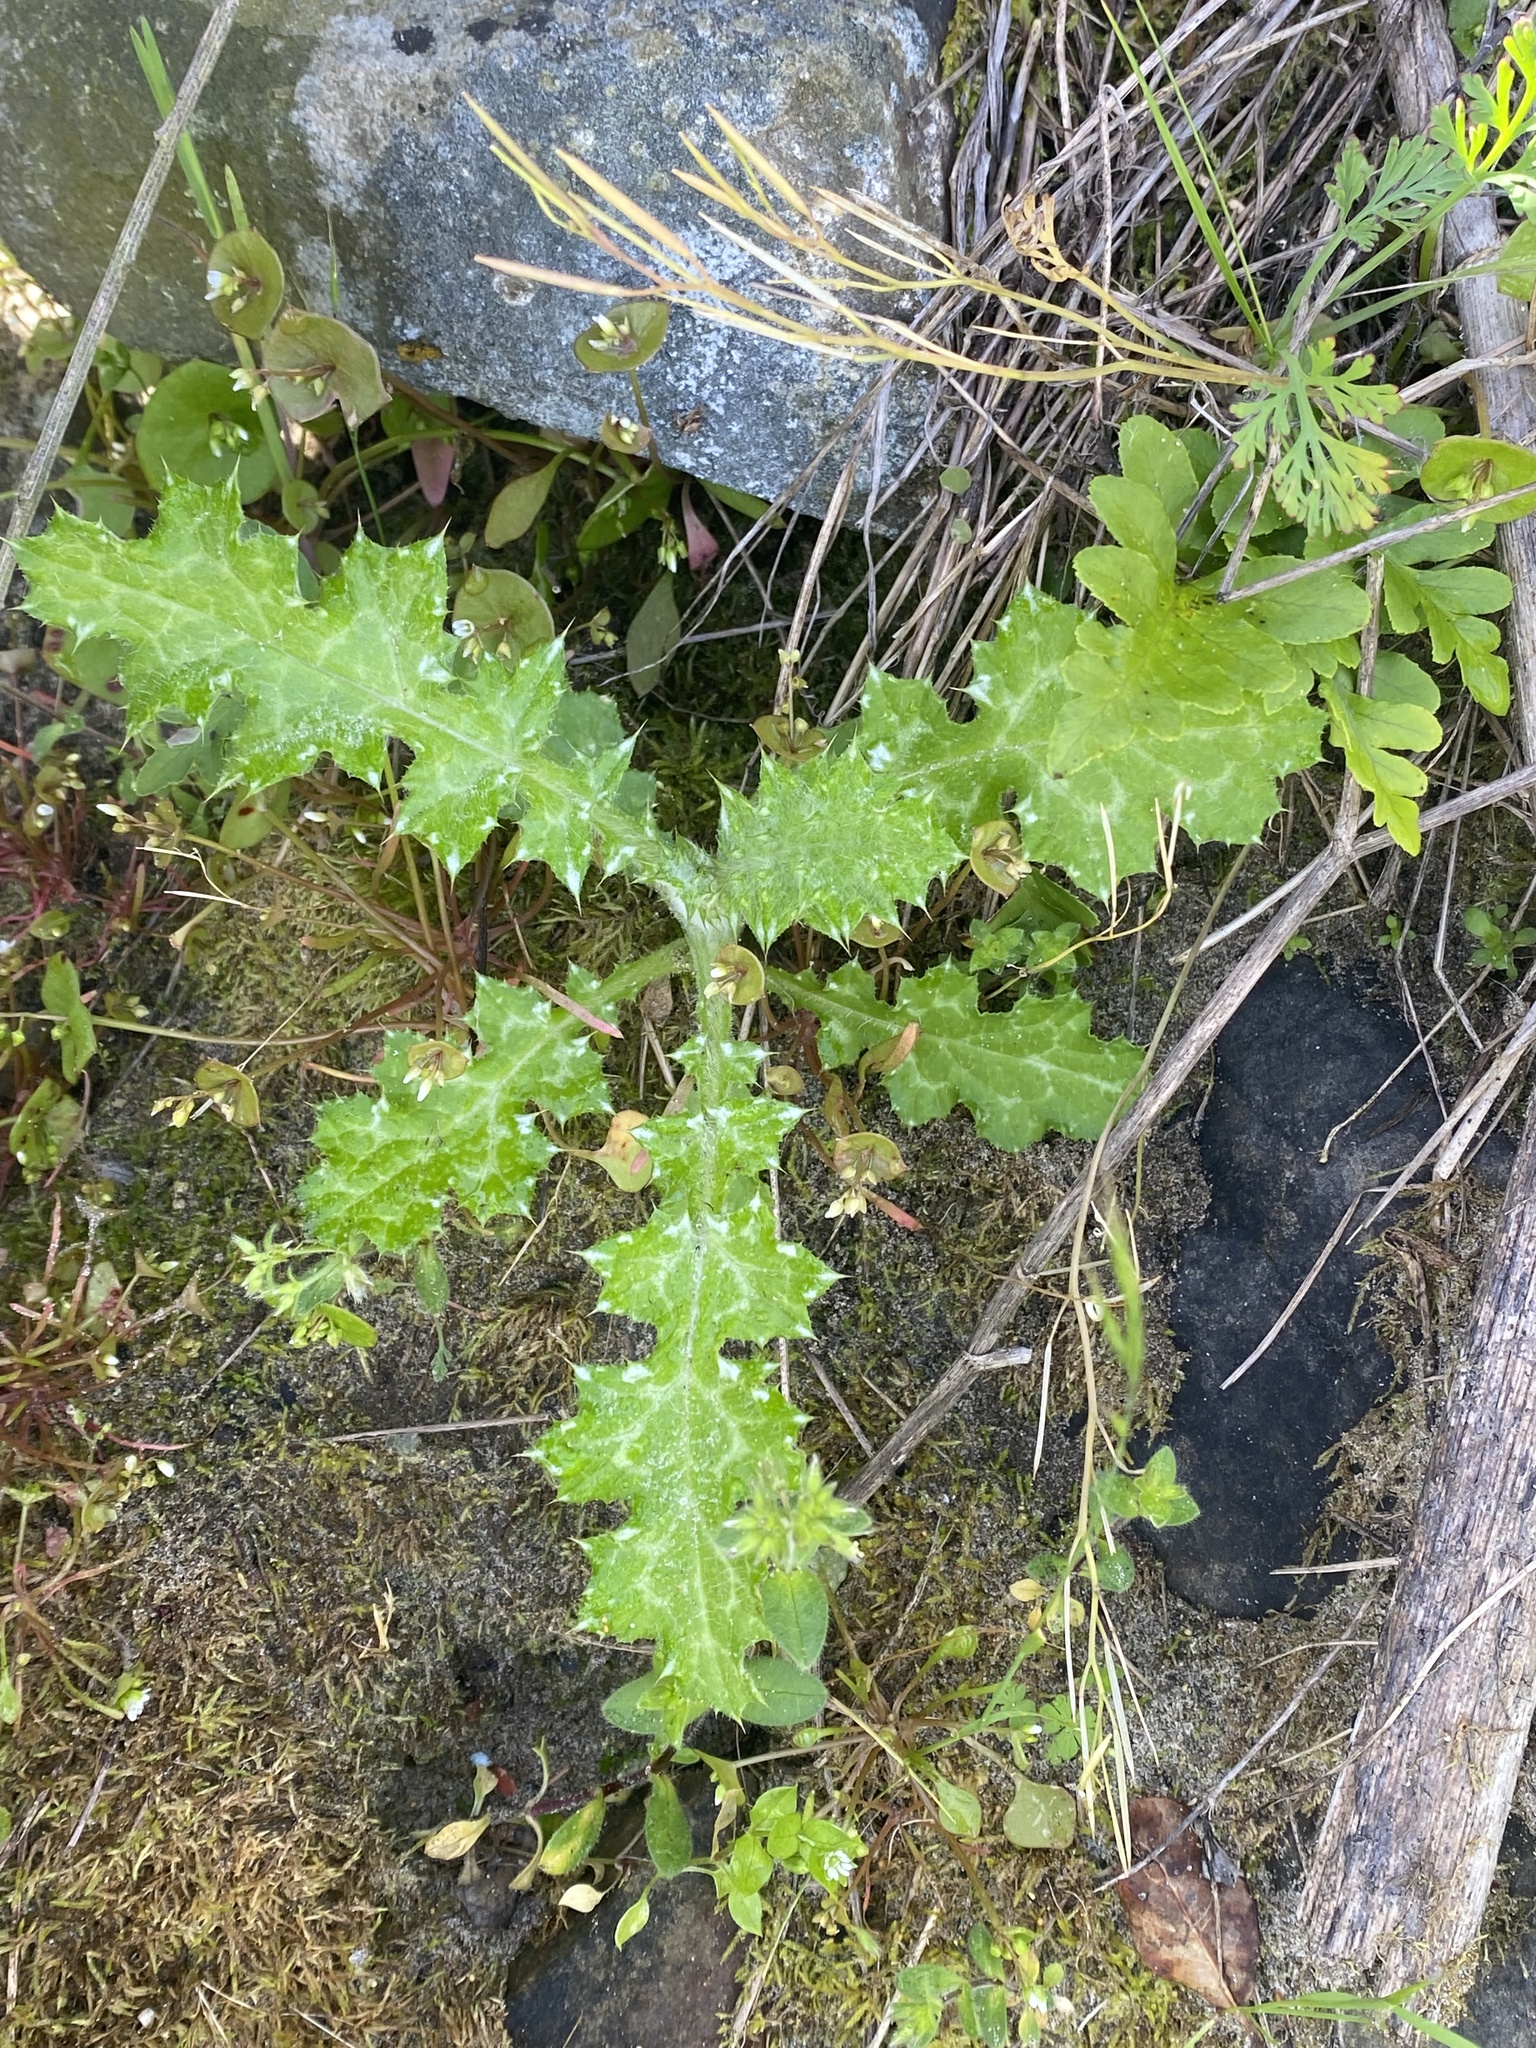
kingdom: Plantae
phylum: Tracheophyta
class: Magnoliopsida
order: Asterales
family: Asteraceae
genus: Carduus
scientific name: Carduus pycnocephalus
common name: Plymouth thistle
